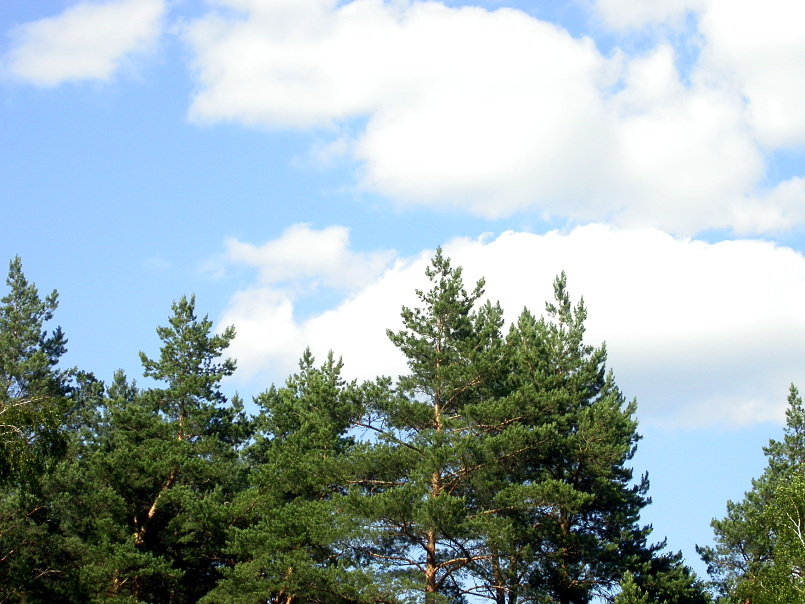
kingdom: Plantae
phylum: Tracheophyta
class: Pinopsida
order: Pinales
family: Pinaceae
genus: Pinus
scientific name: Pinus sylvestris
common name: Scots pine
